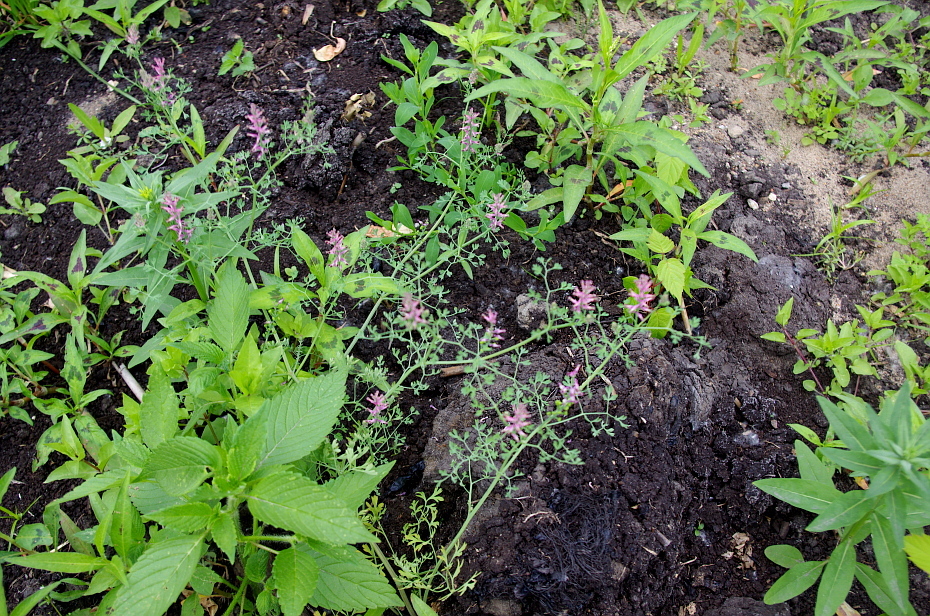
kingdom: Plantae
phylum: Tracheophyta
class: Magnoliopsida
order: Ranunculales
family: Papaveraceae
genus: Fumaria
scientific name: Fumaria officinalis
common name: Common fumitory
